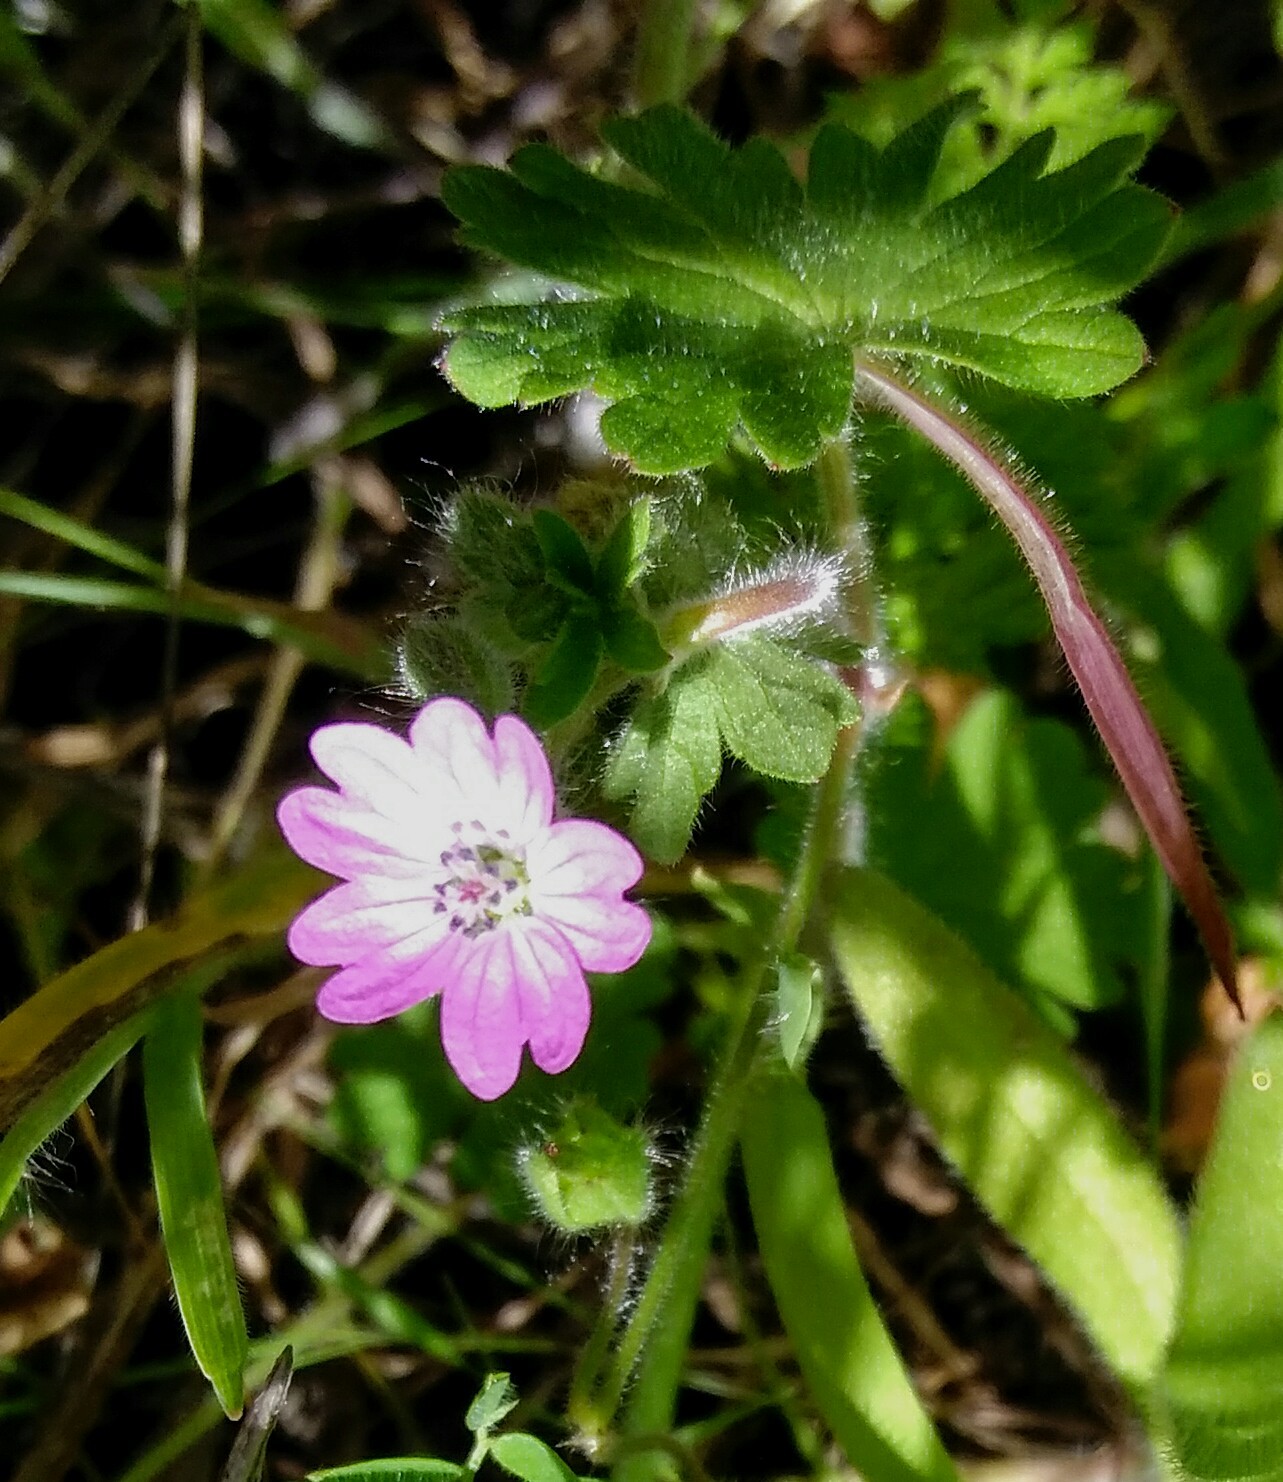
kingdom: Plantae
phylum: Tracheophyta
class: Magnoliopsida
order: Geraniales
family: Geraniaceae
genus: Geranium
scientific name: Geranium molle
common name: Dove's-foot crane's-bill
